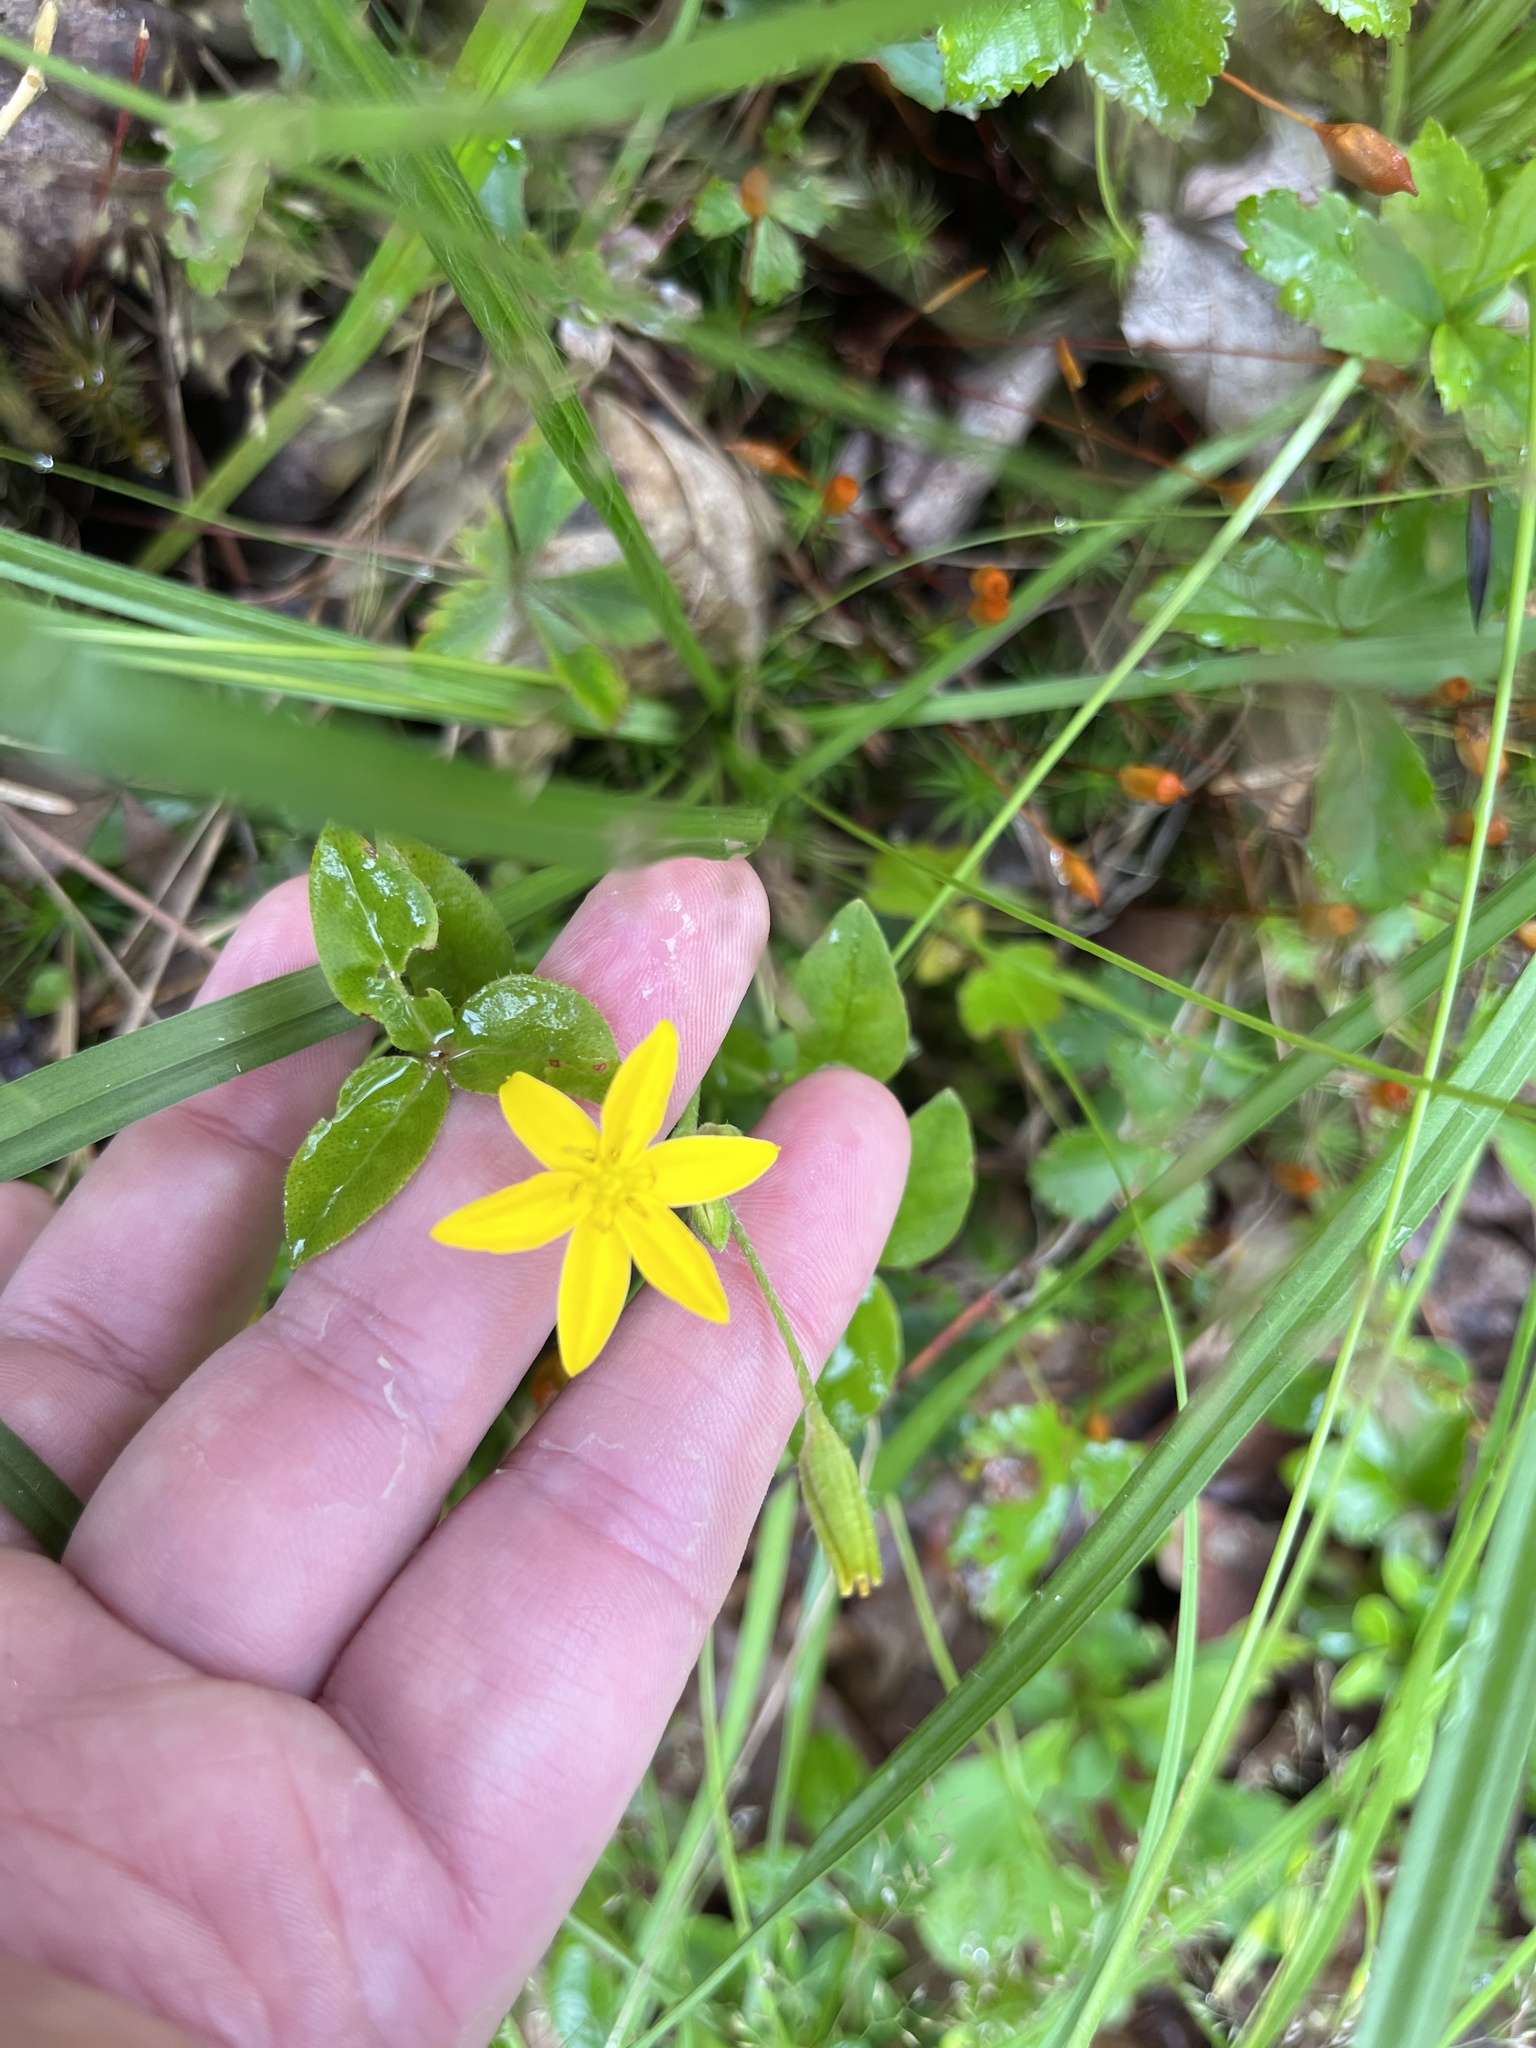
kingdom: Plantae
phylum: Tracheophyta
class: Liliopsida
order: Asparagales
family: Hypoxidaceae
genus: Hypoxis
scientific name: Hypoxis hirsuta
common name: Common goldstar
